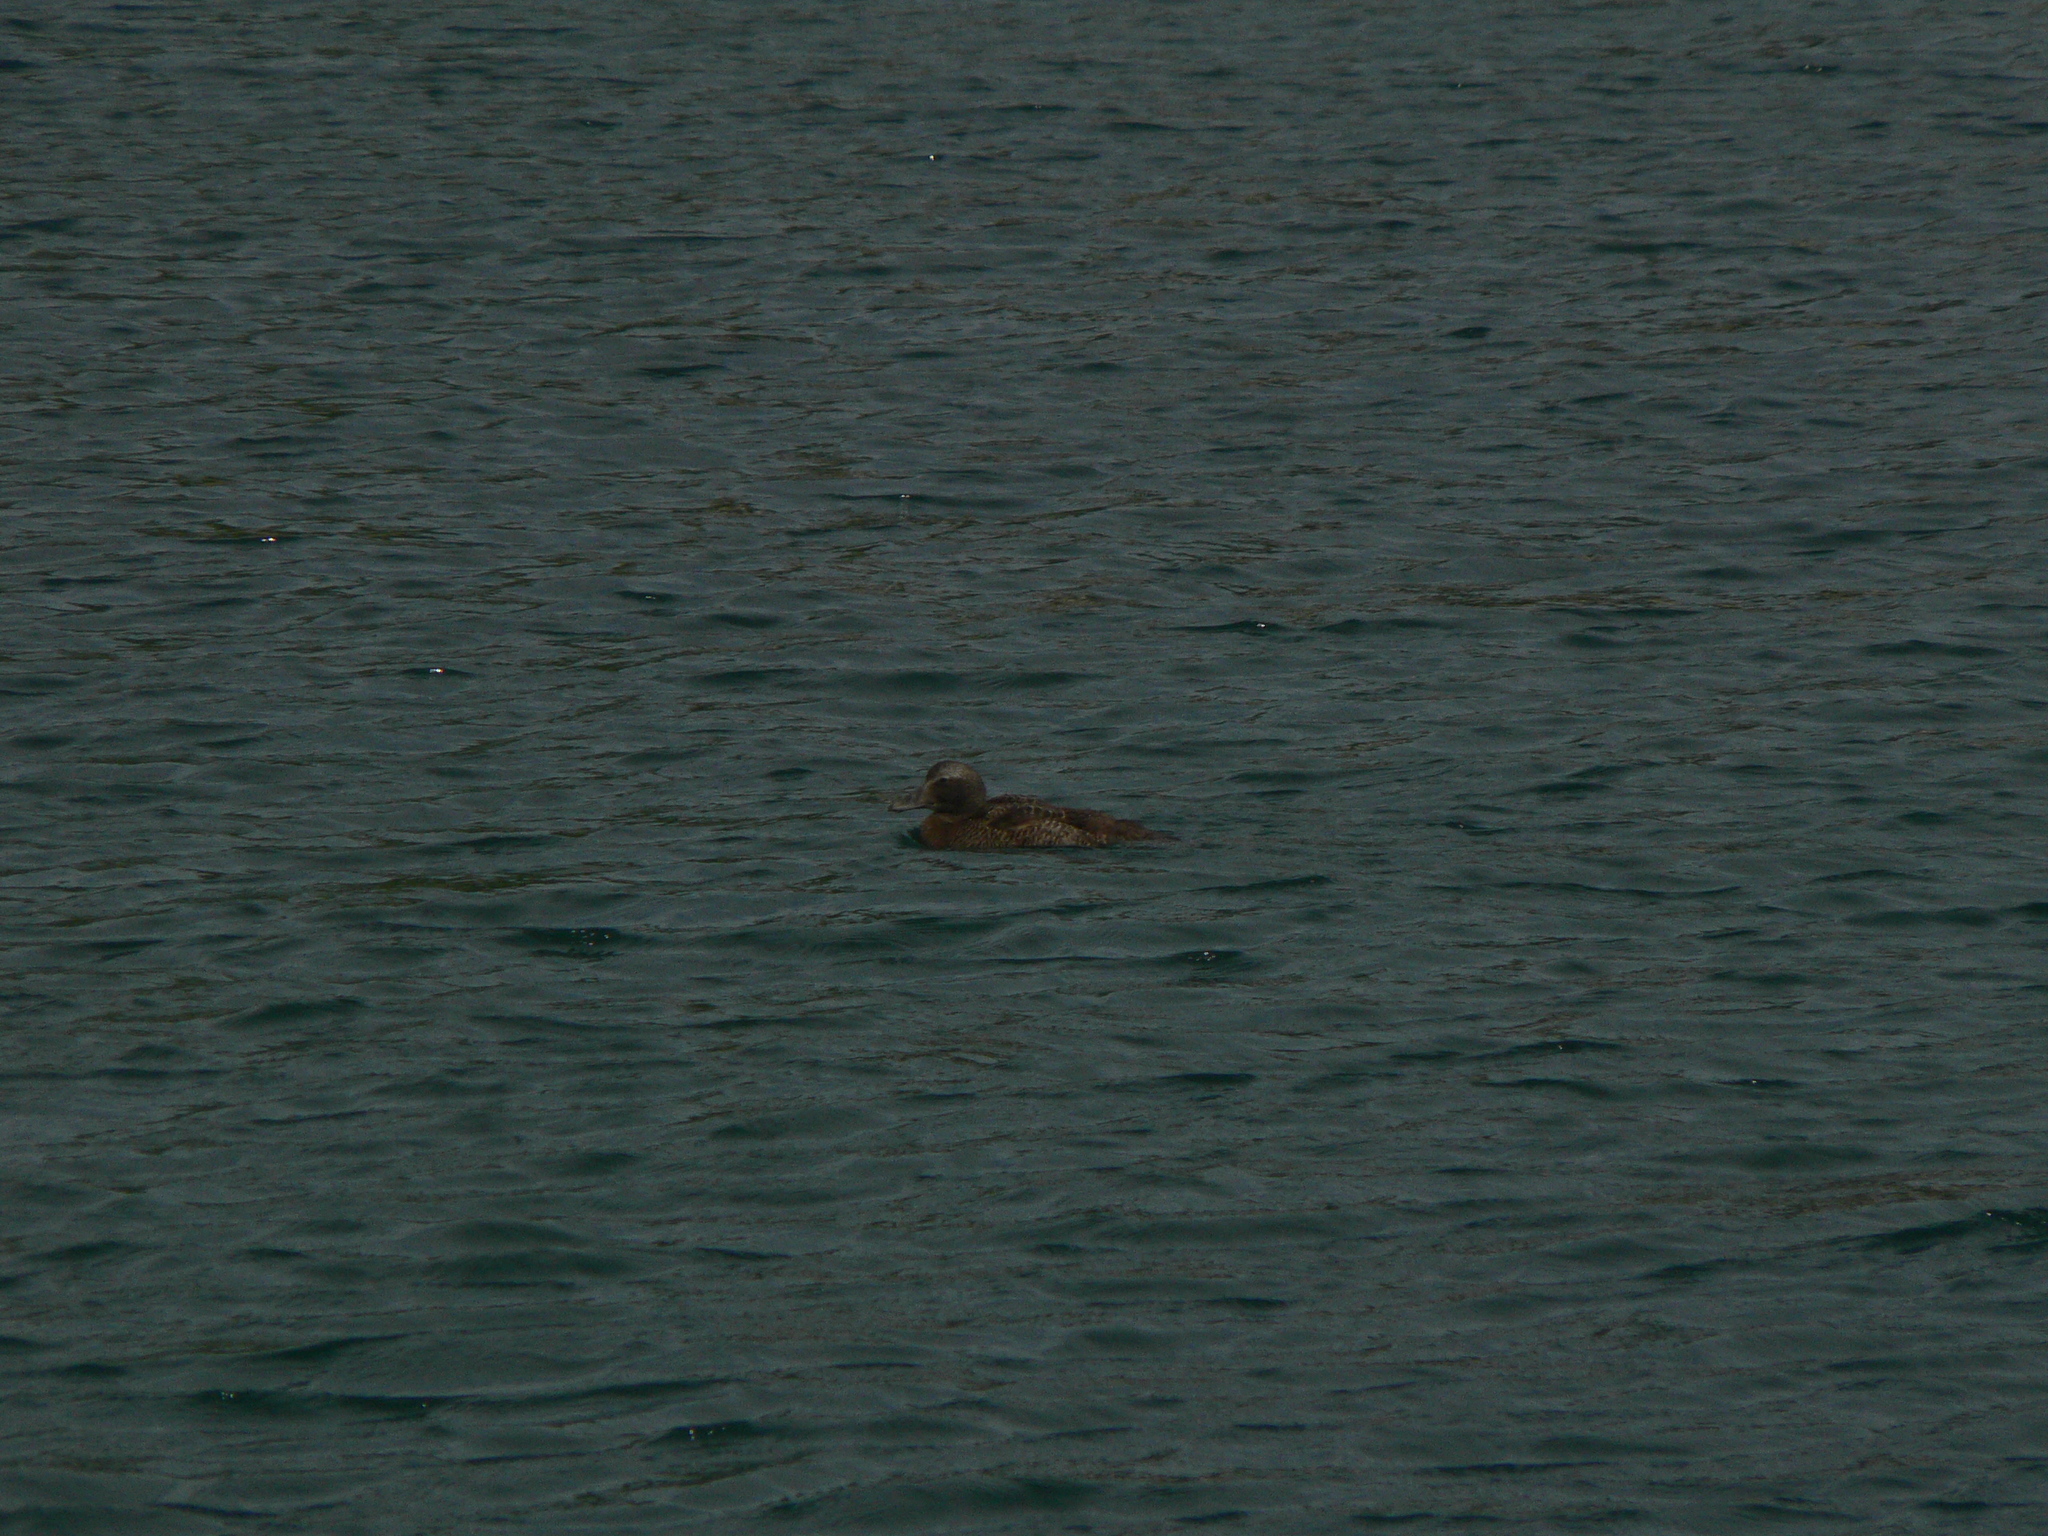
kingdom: Animalia
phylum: Chordata
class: Aves
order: Anseriformes
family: Anatidae
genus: Somateria
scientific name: Somateria mollissima
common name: Common eider
